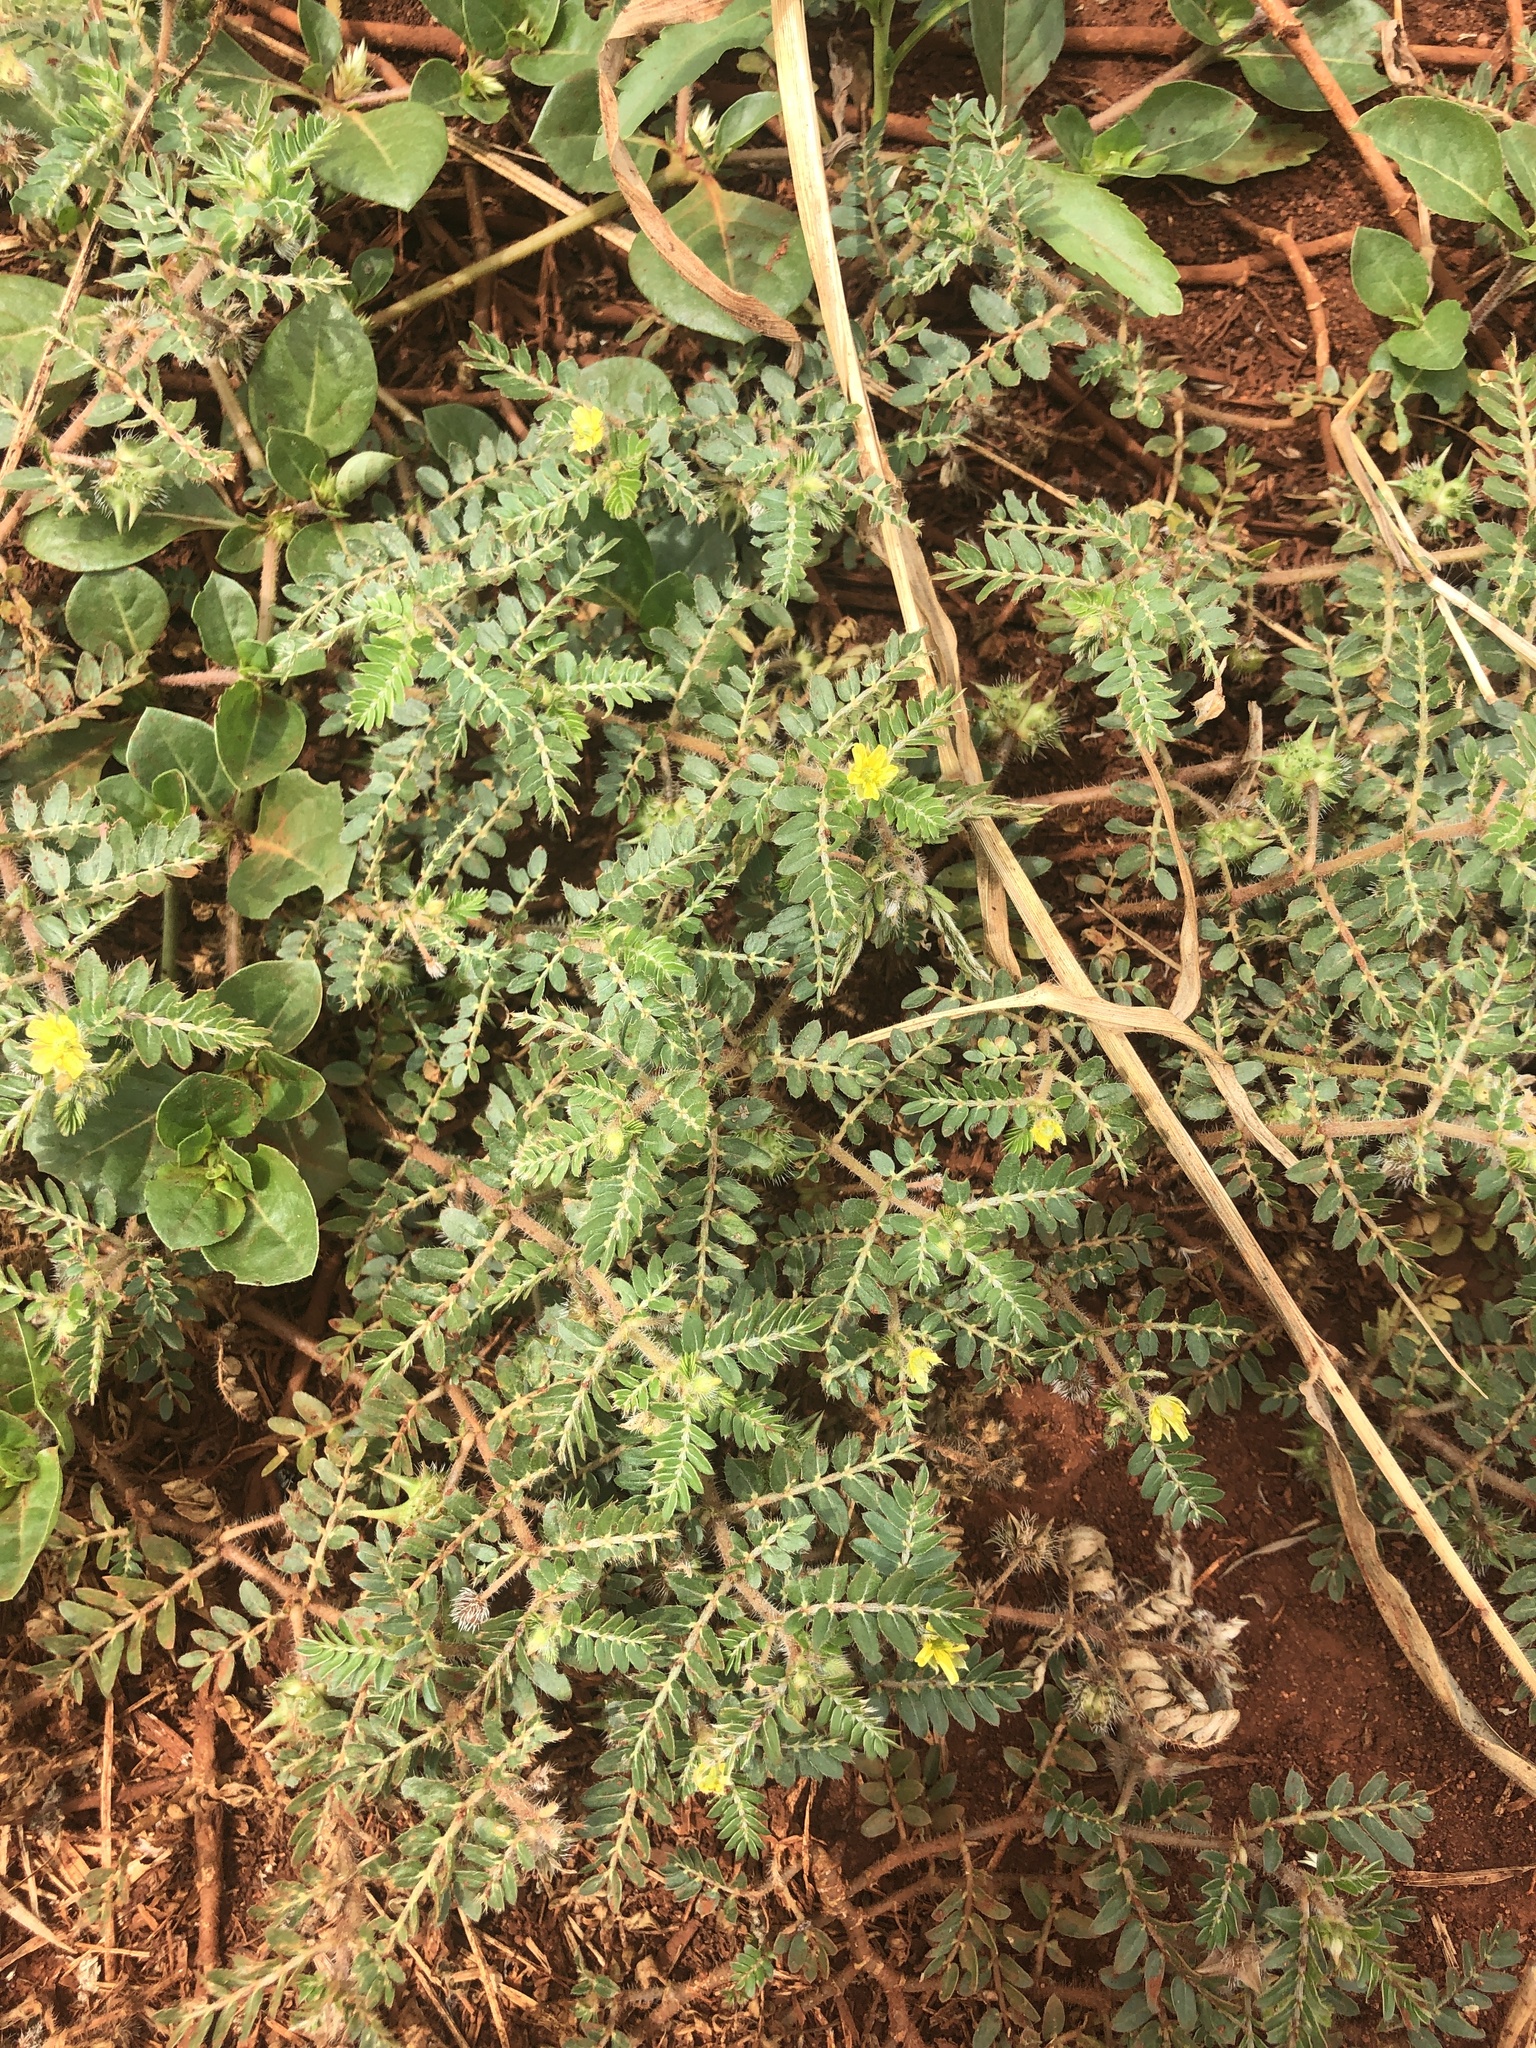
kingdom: Plantae
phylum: Tracheophyta
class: Magnoliopsida
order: Zygophyllales
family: Zygophyllaceae
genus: Tribulus
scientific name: Tribulus terrestris
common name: Puncturevine
